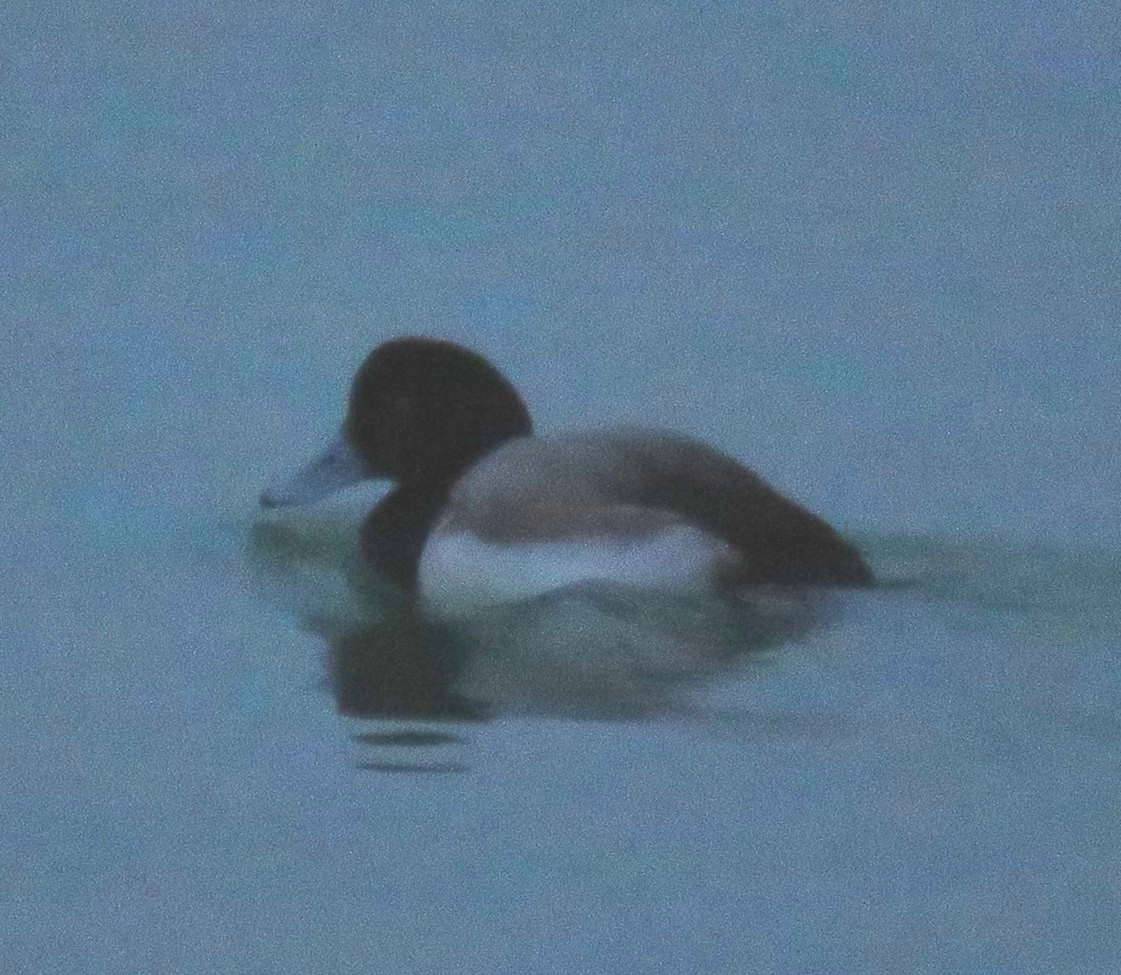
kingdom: Animalia
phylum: Chordata
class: Aves
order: Anseriformes
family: Anatidae
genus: Aythya
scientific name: Aythya marila
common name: Greater scaup
